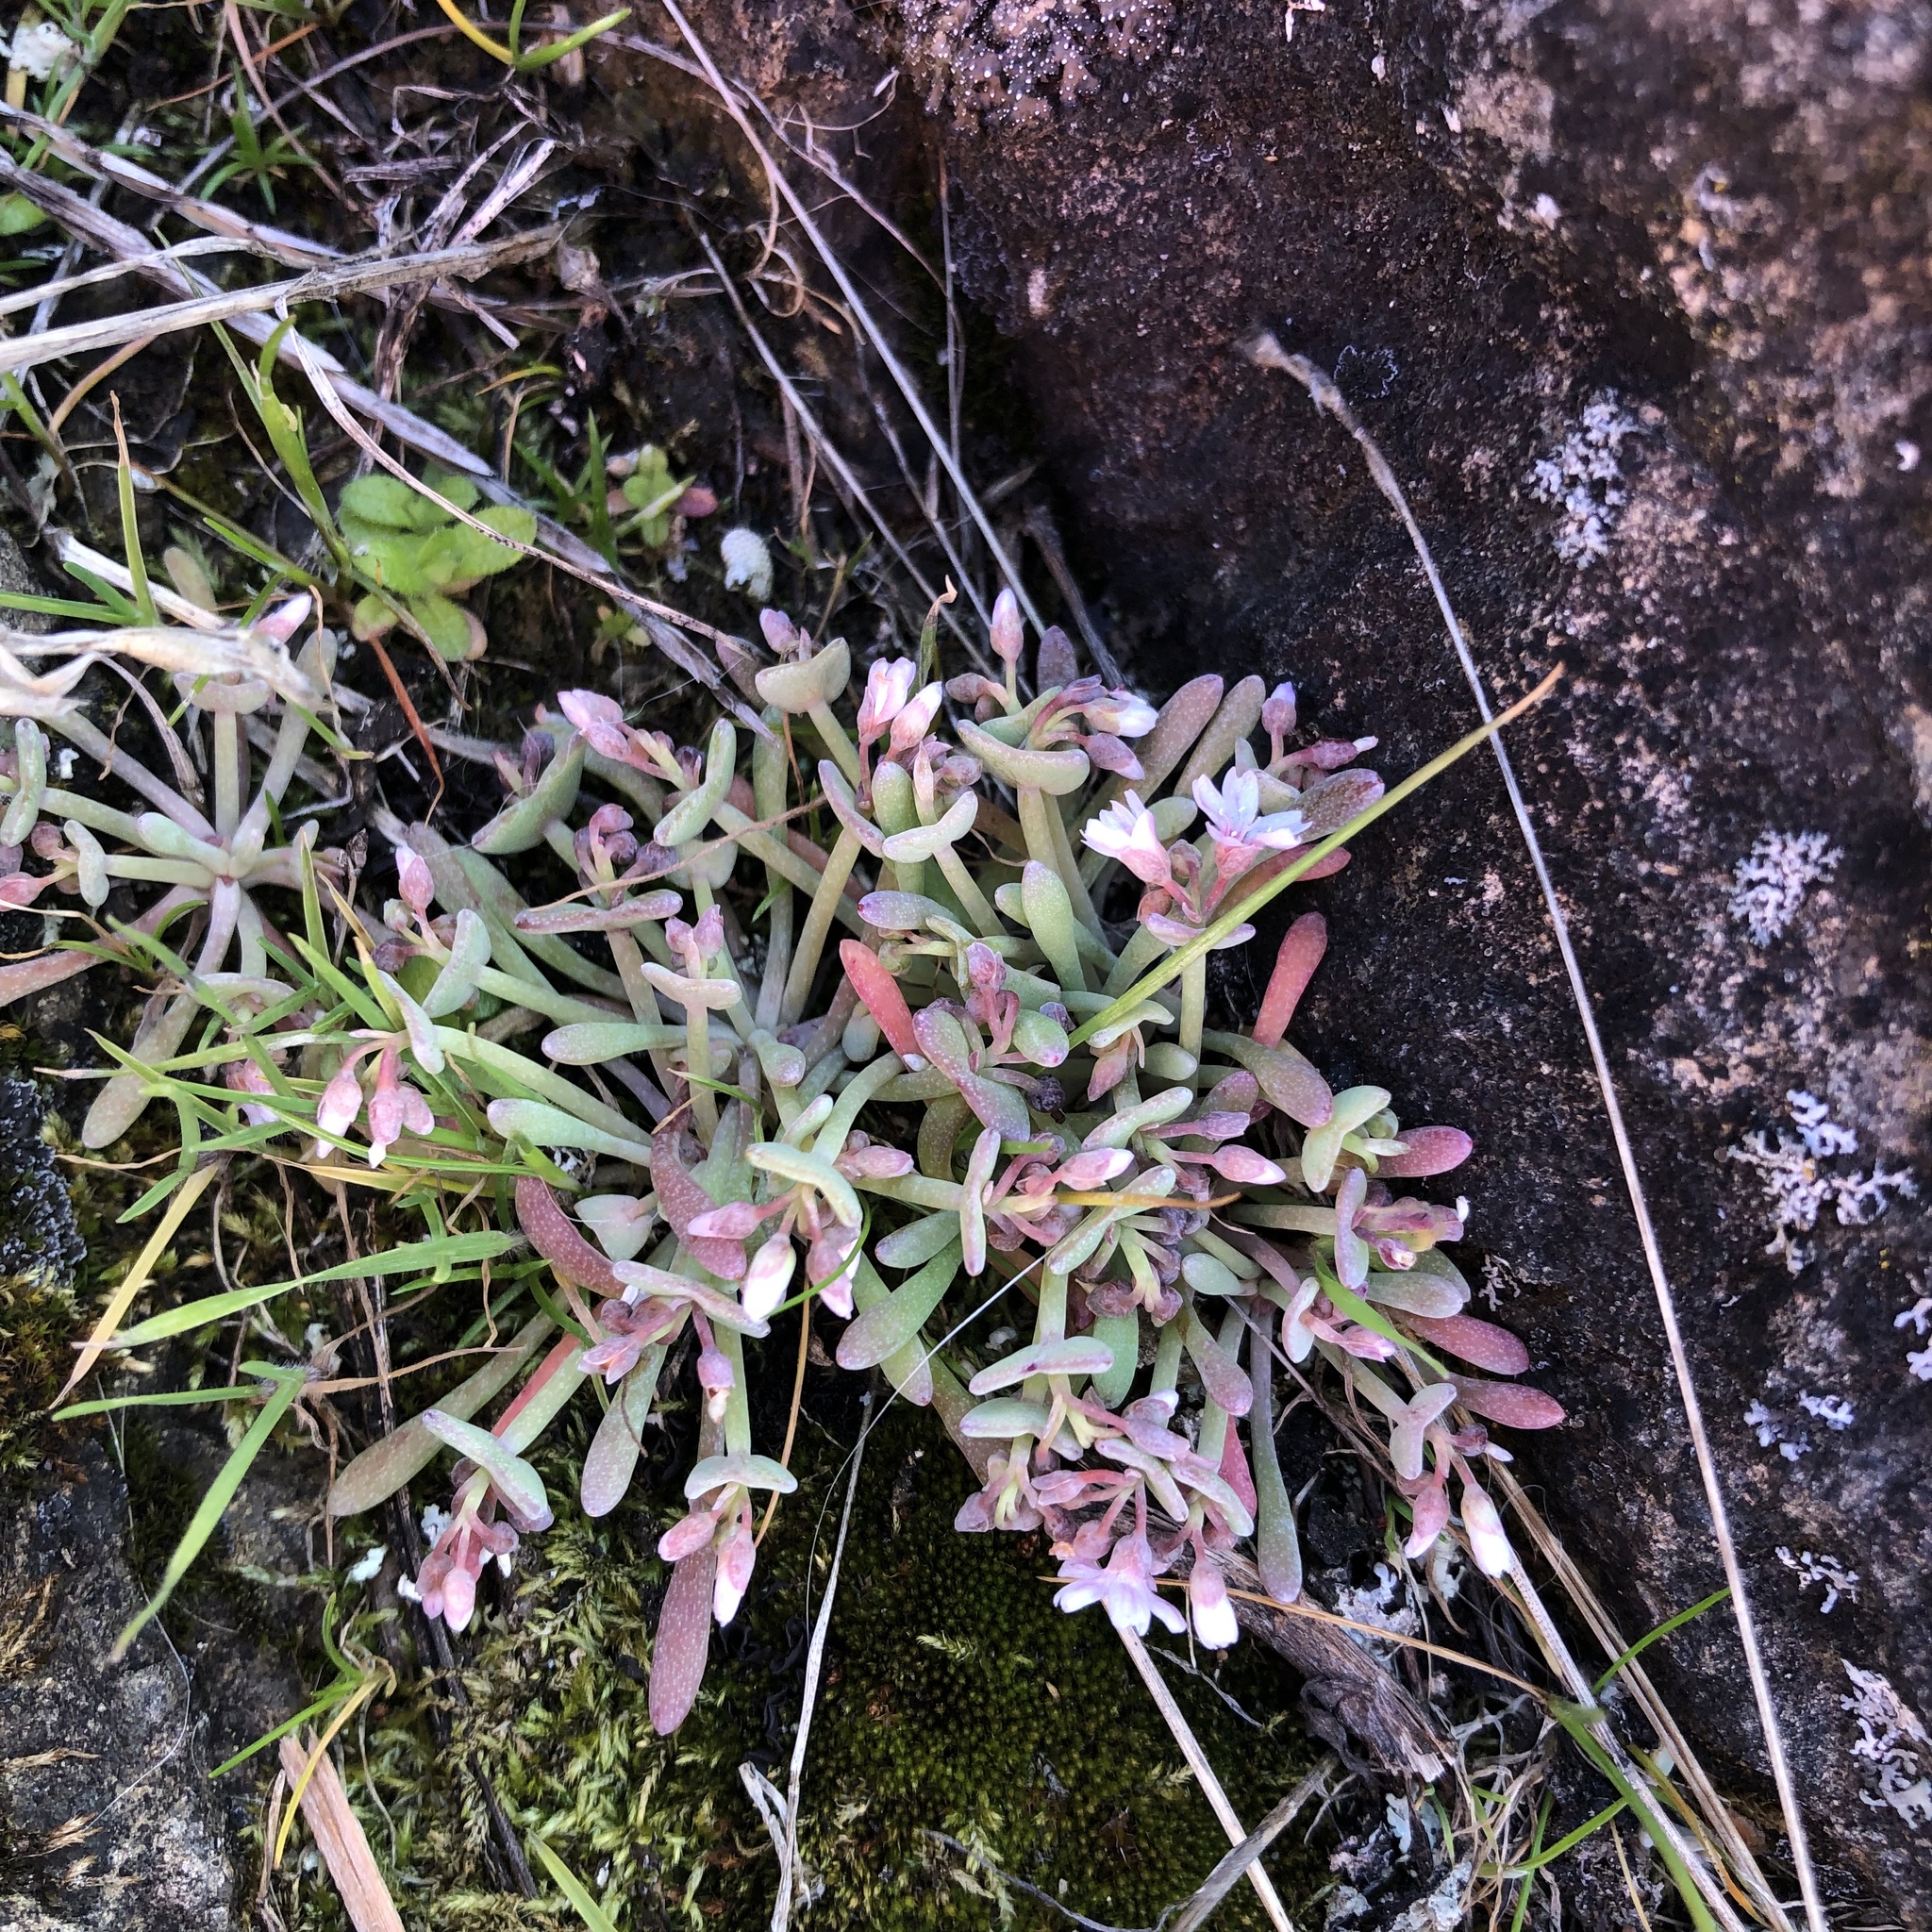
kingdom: Plantae
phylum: Tracheophyta
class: Magnoliopsida
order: Caryophyllales
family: Montiaceae
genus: Claytonia
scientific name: Claytonia exigua
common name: Pale spring beauty
